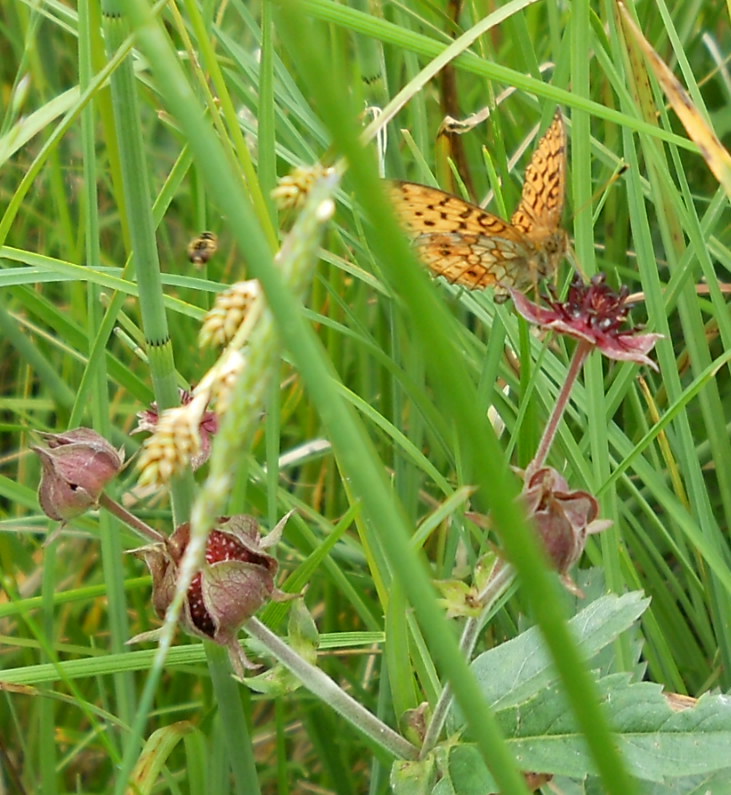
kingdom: Animalia
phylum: Arthropoda
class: Insecta
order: Lepidoptera
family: Nymphalidae
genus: Brenthis
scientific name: Brenthis ino
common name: Lesser marbled fritillary
